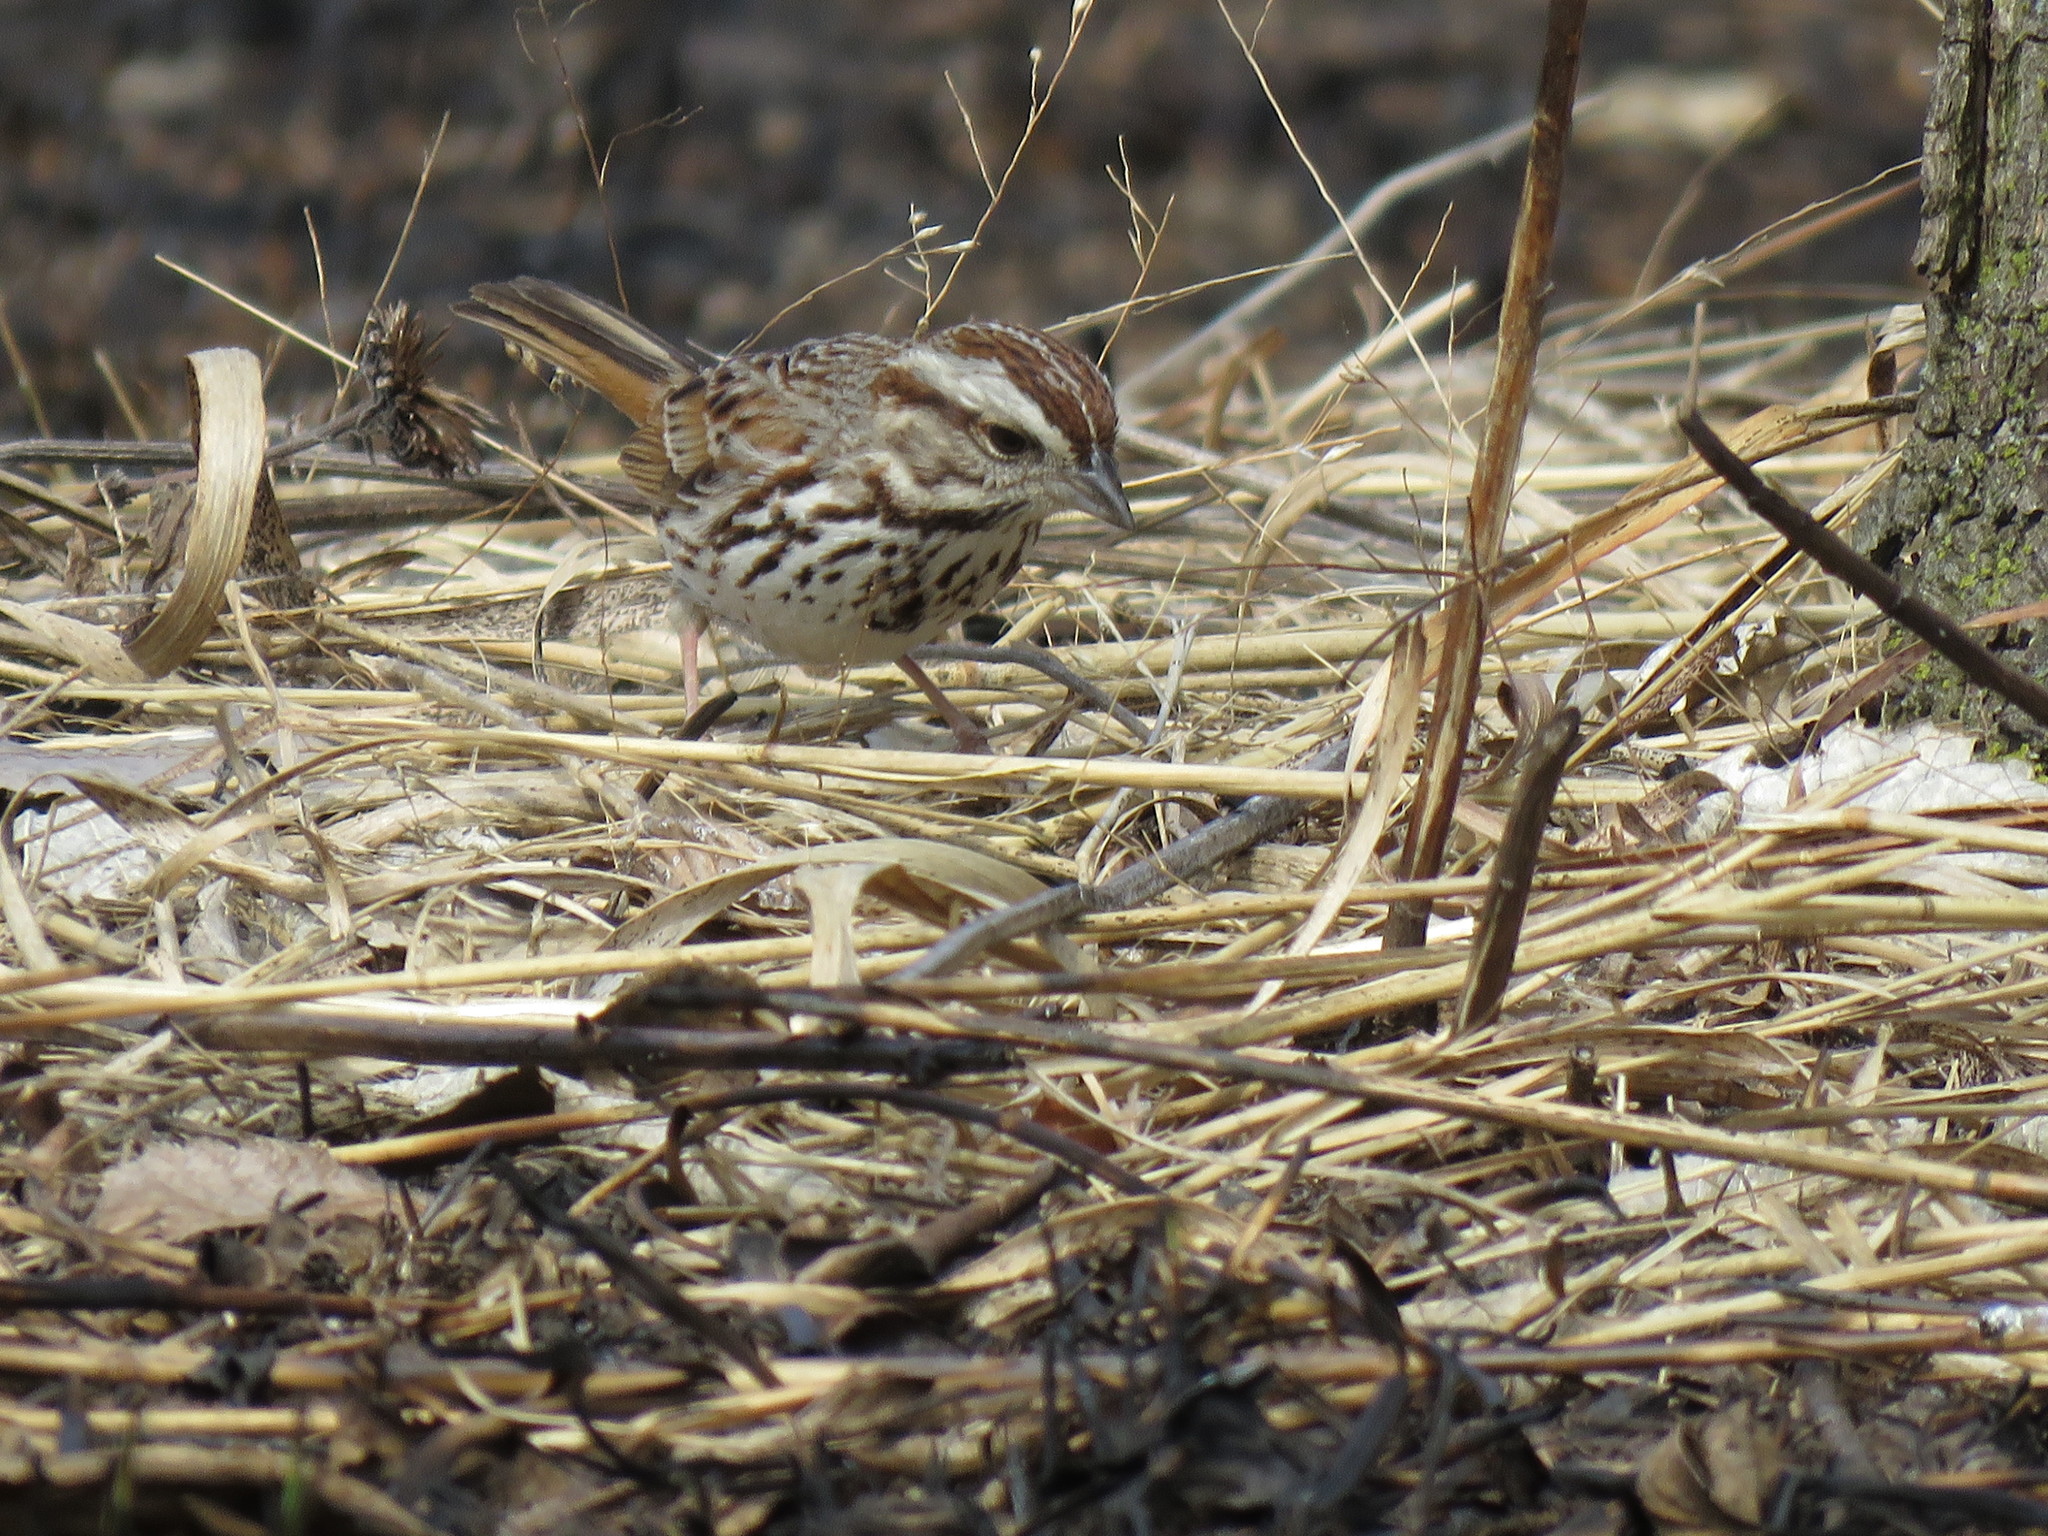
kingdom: Animalia
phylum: Chordata
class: Aves
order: Passeriformes
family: Passerellidae
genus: Melospiza
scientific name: Melospiza melodia
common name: Song sparrow
